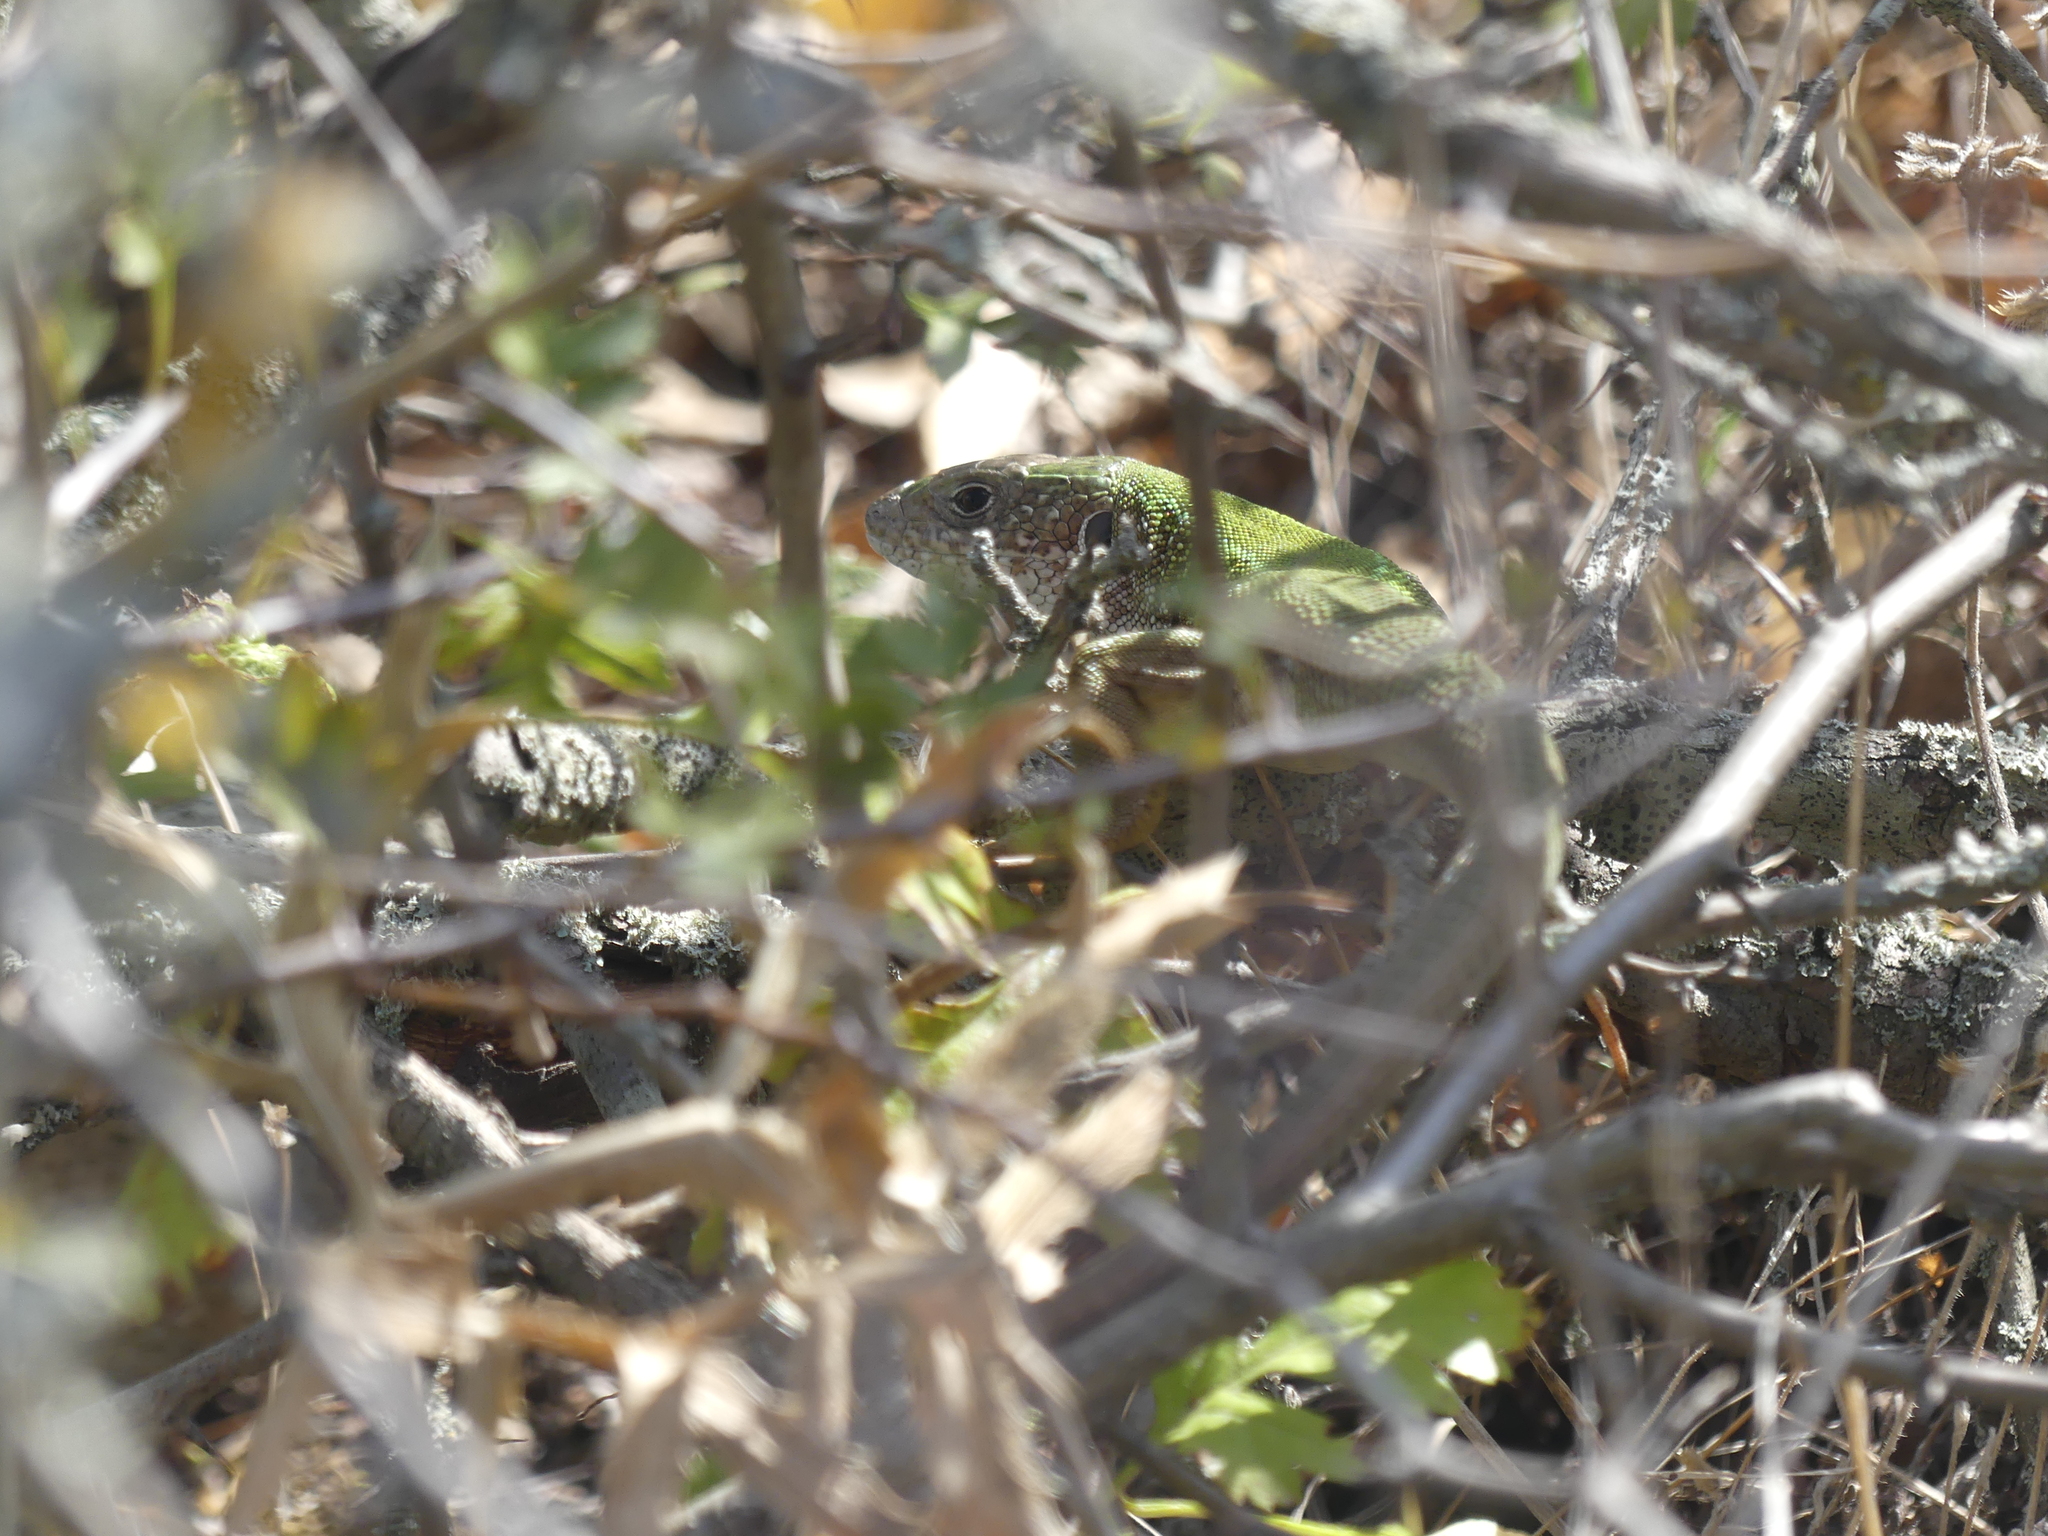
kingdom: Animalia
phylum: Chordata
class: Squamata
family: Lacertidae
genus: Lacerta
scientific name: Lacerta viridis
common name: European green lizard
